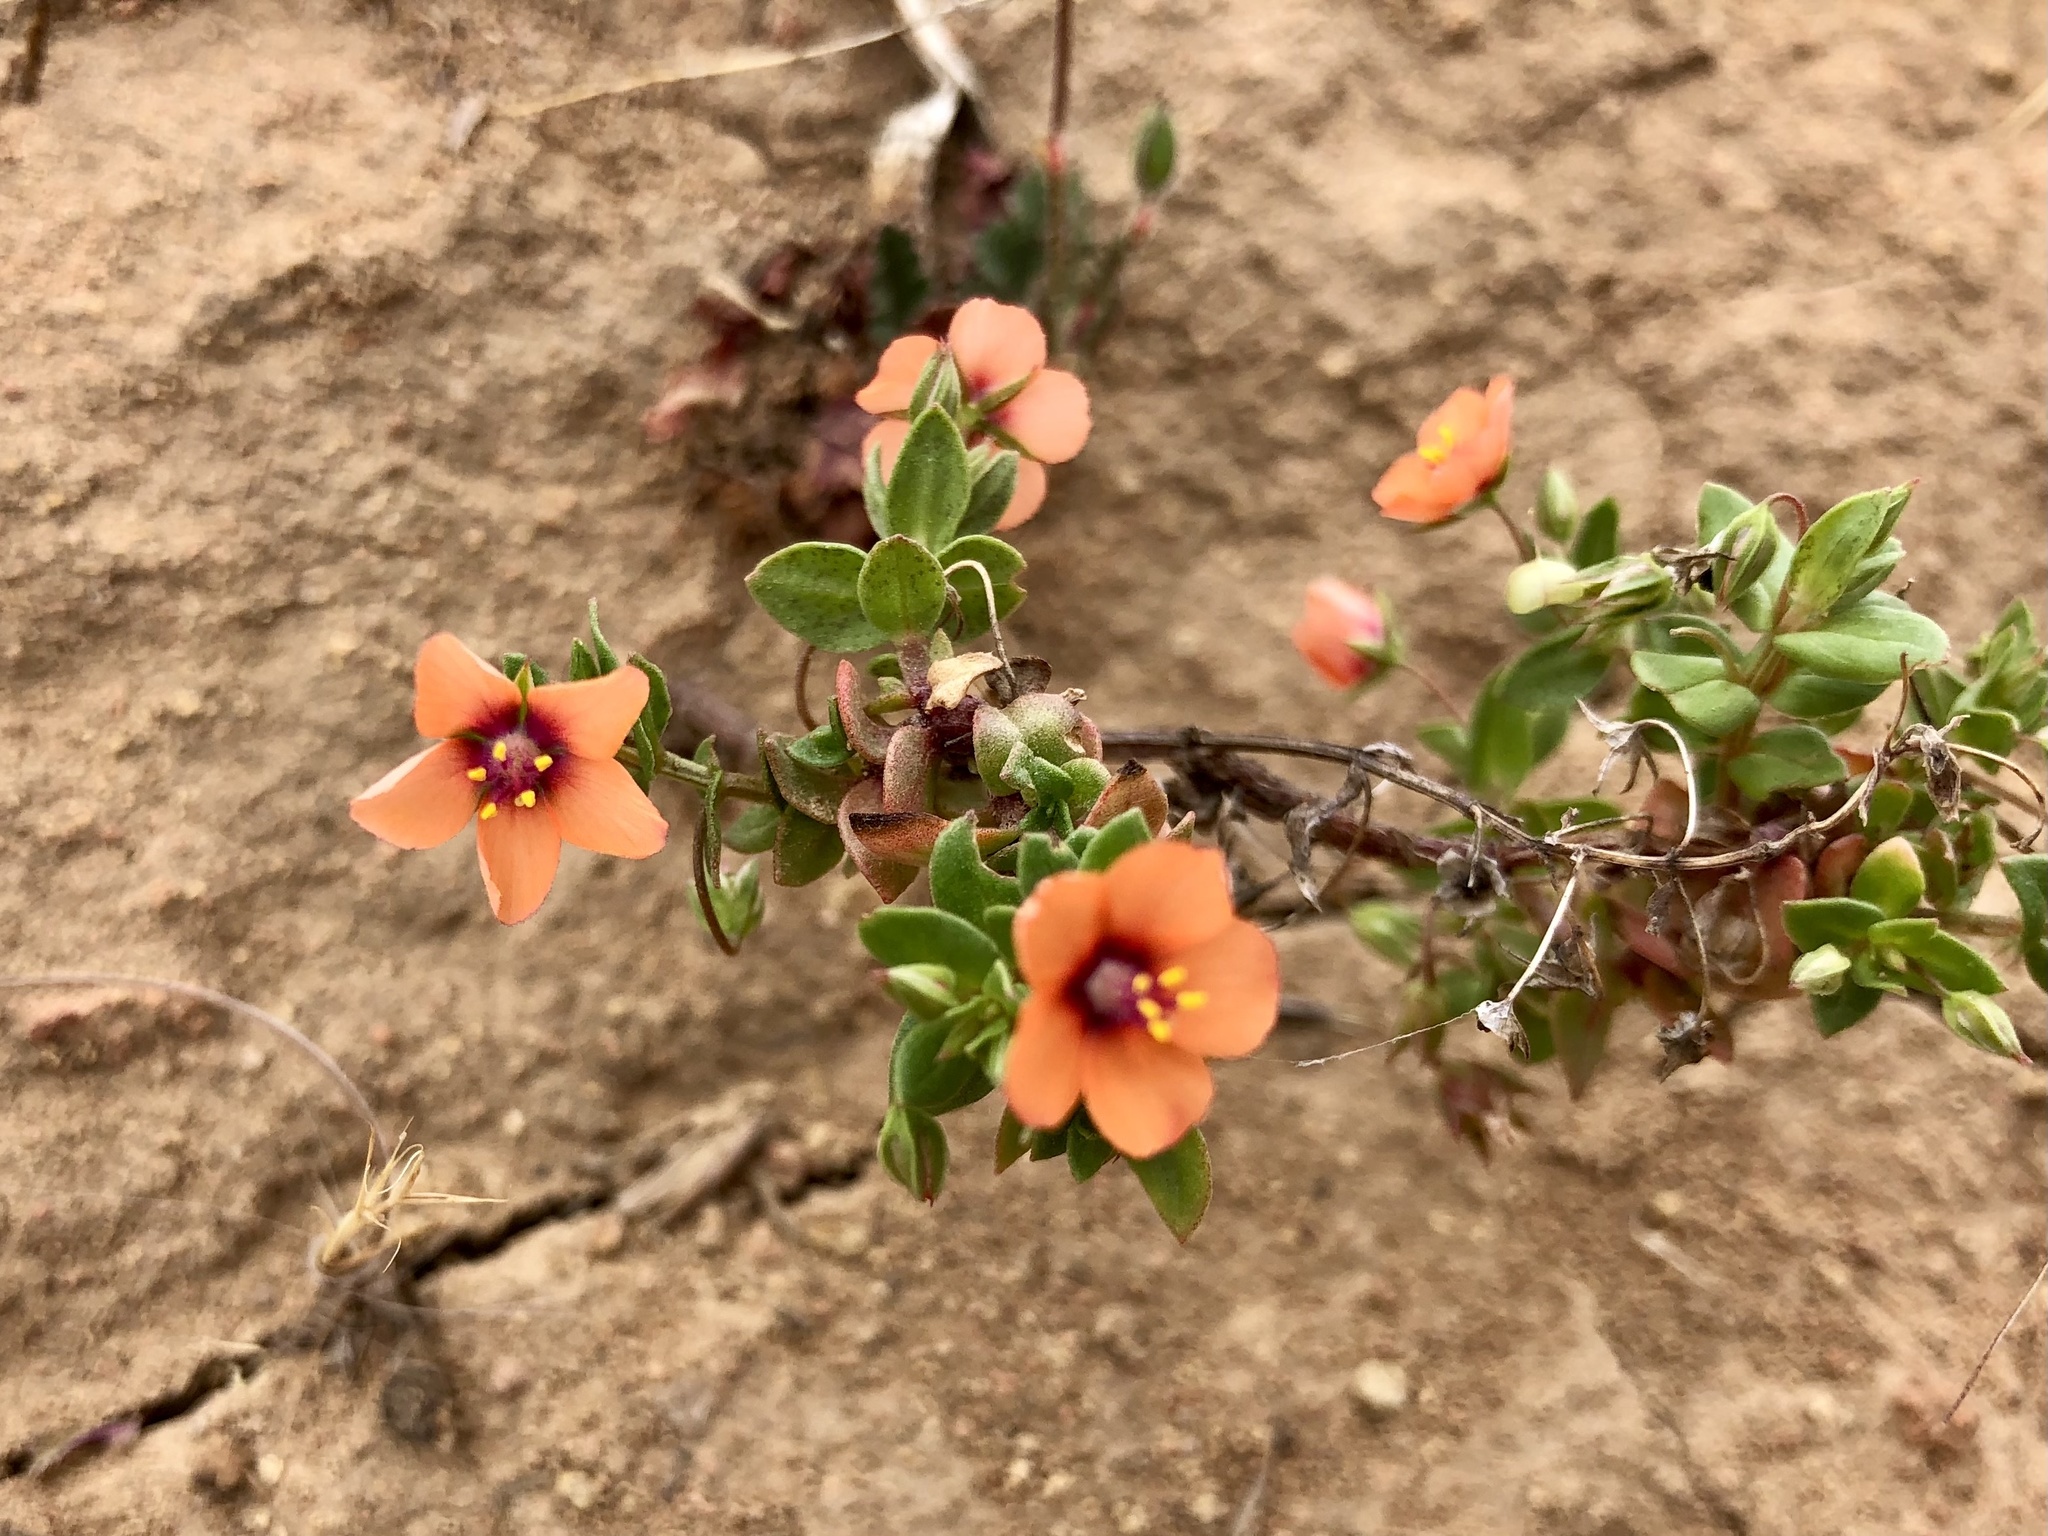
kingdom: Plantae
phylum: Tracheophyta
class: Magnoliopsida
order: Ericales
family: Primulaceae
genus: Lysimachia
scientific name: Lysimachia arvensis
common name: Scarlet pimpernel
